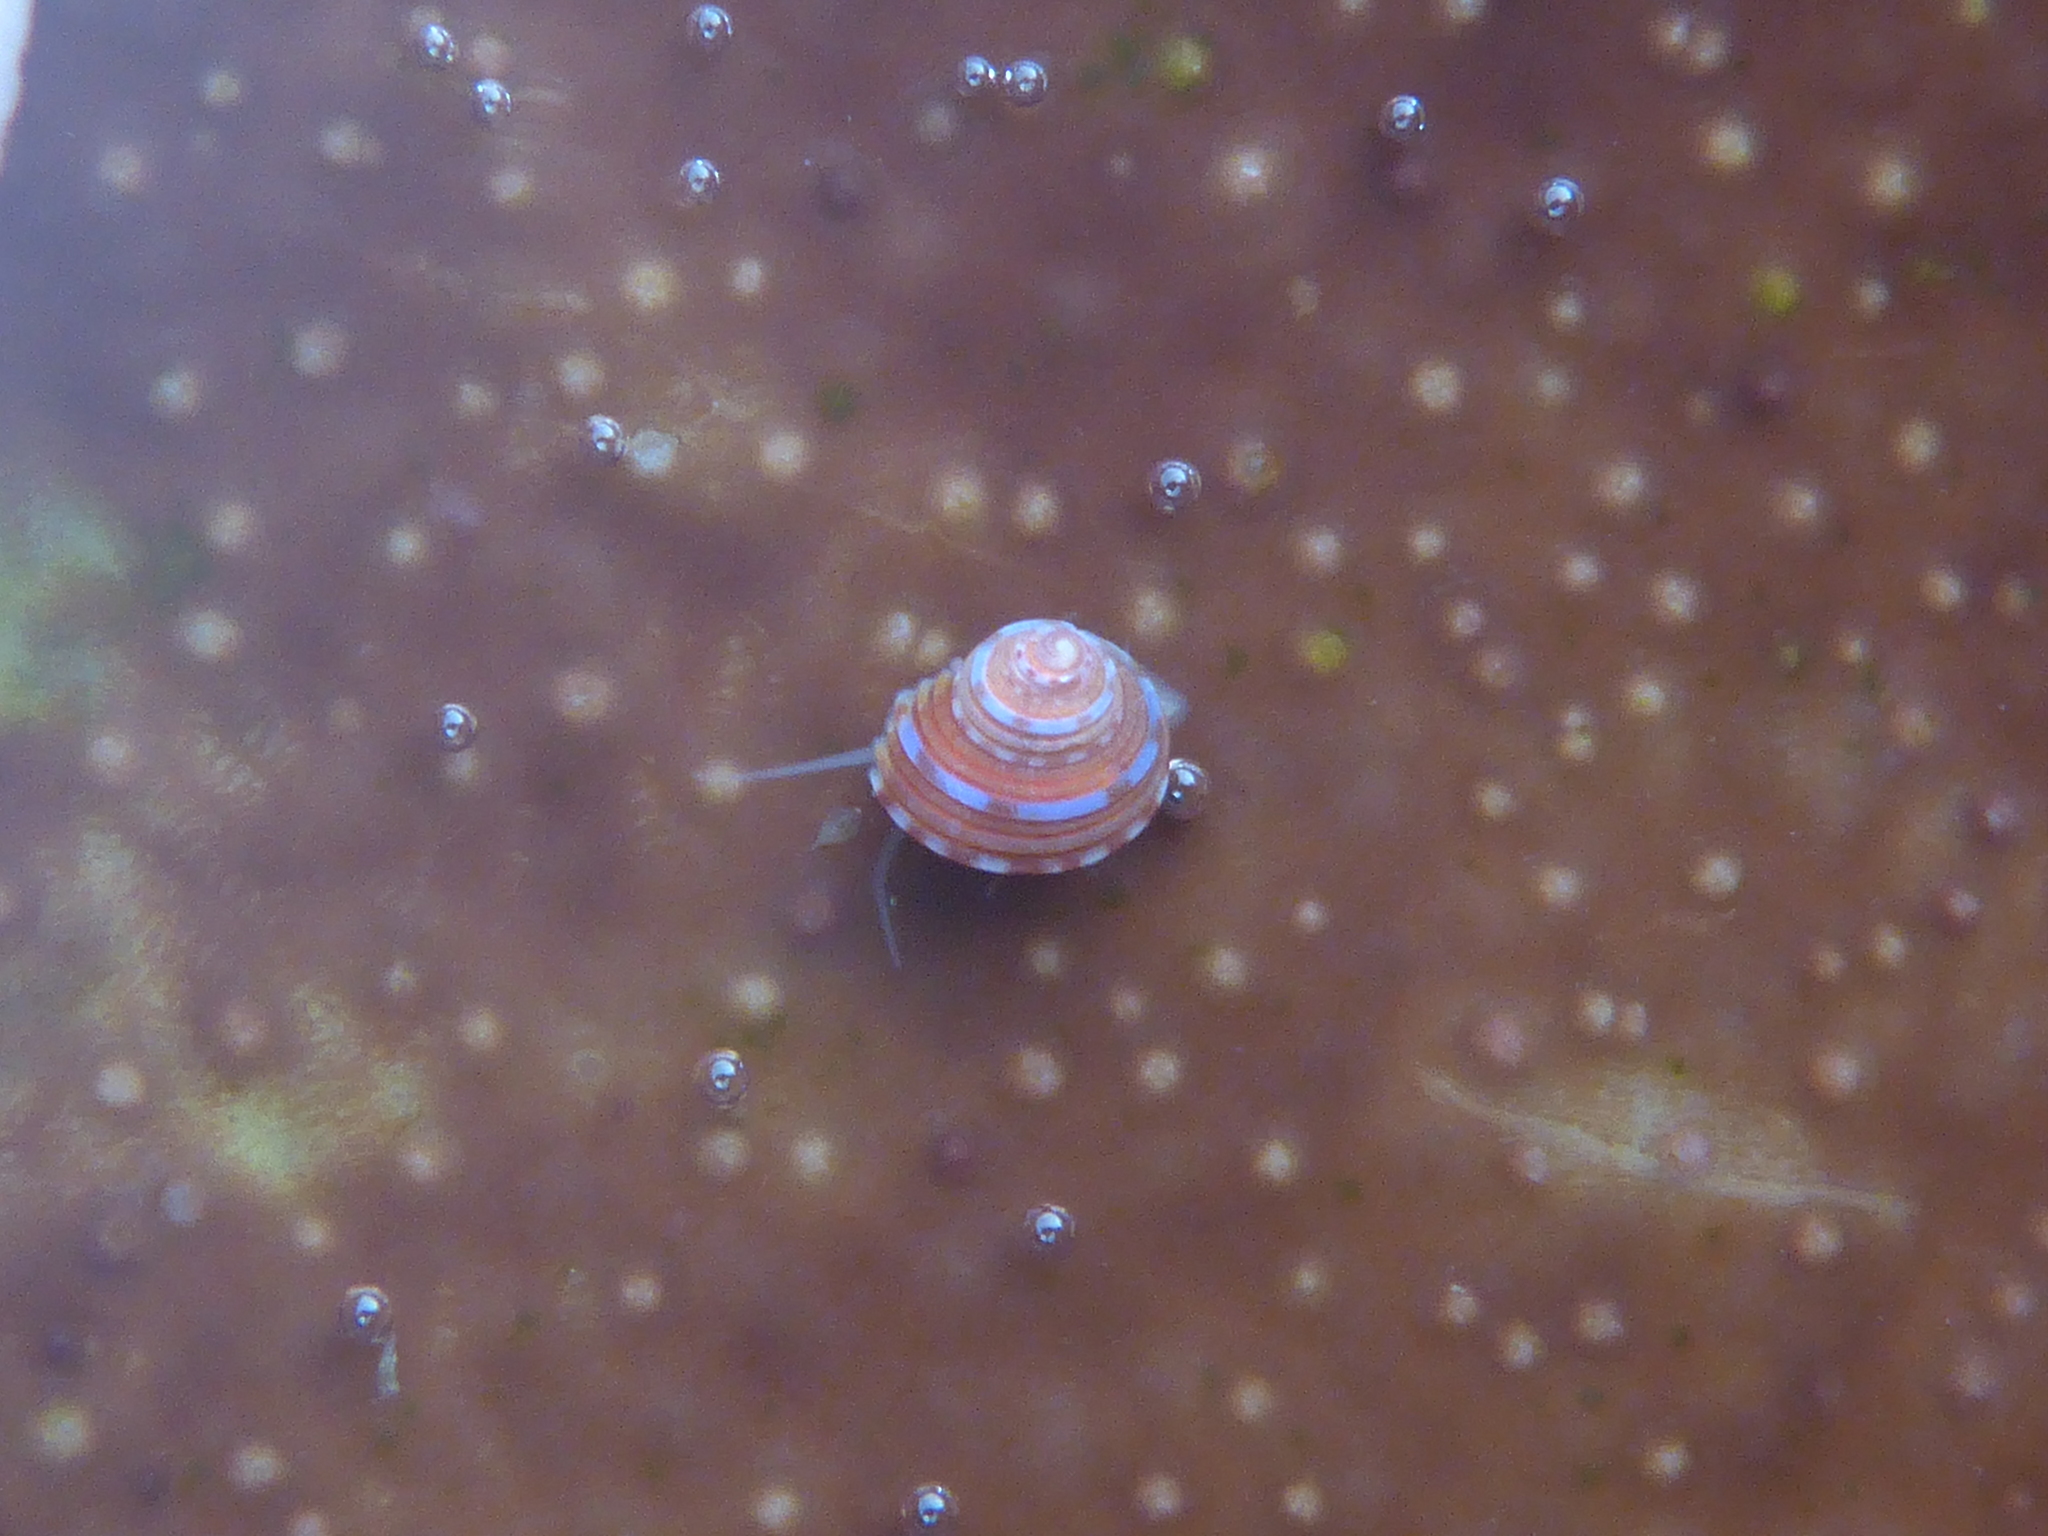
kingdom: Animalia
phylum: Mollusca
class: Gastropoda
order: Trochida
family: Calliostomatidae
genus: Calliostoma
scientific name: Calliostoma tricolor
